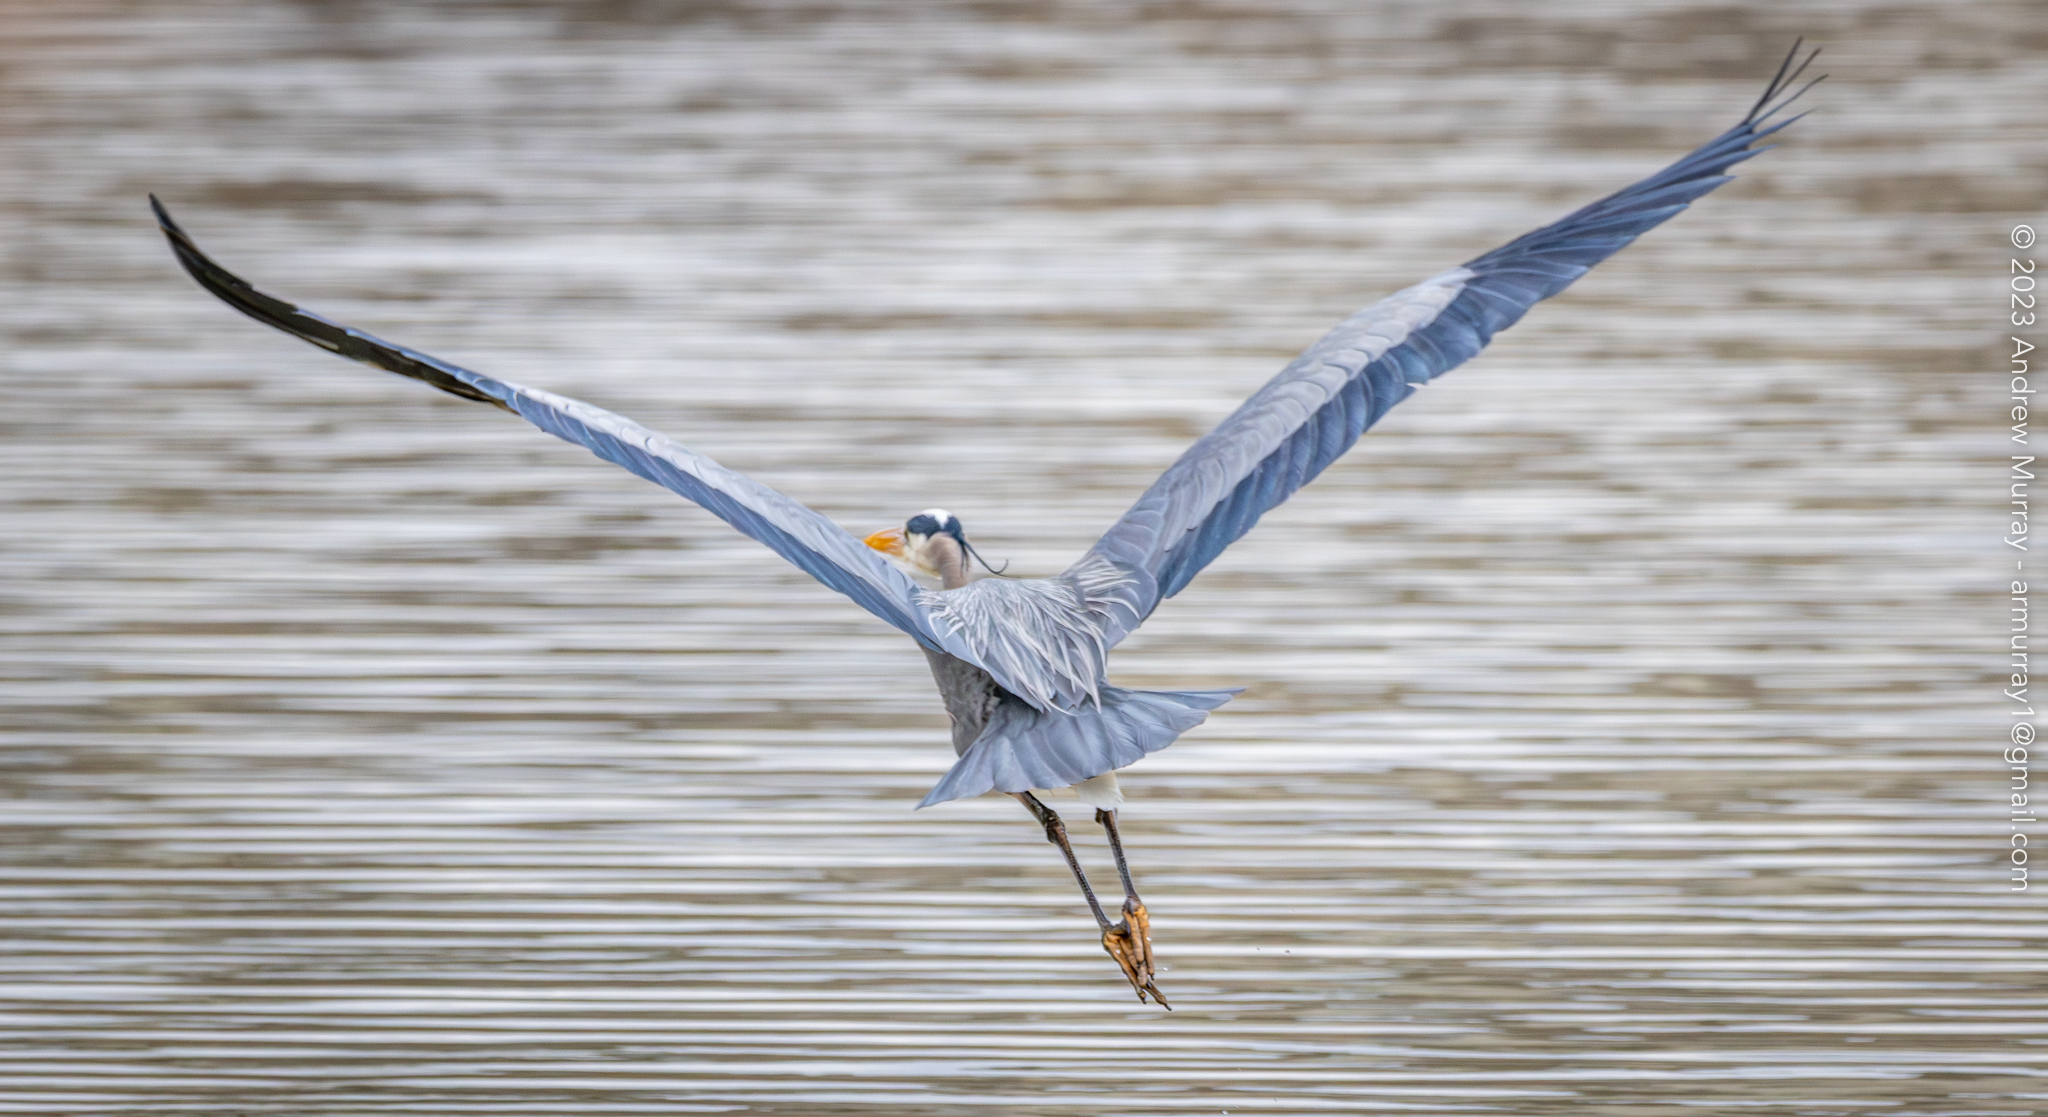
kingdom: Animalia
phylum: Chordata
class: Aves
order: Pelecaniformes
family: Ardeidae
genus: Ardea
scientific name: Ardea herodias
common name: Great blue heron
